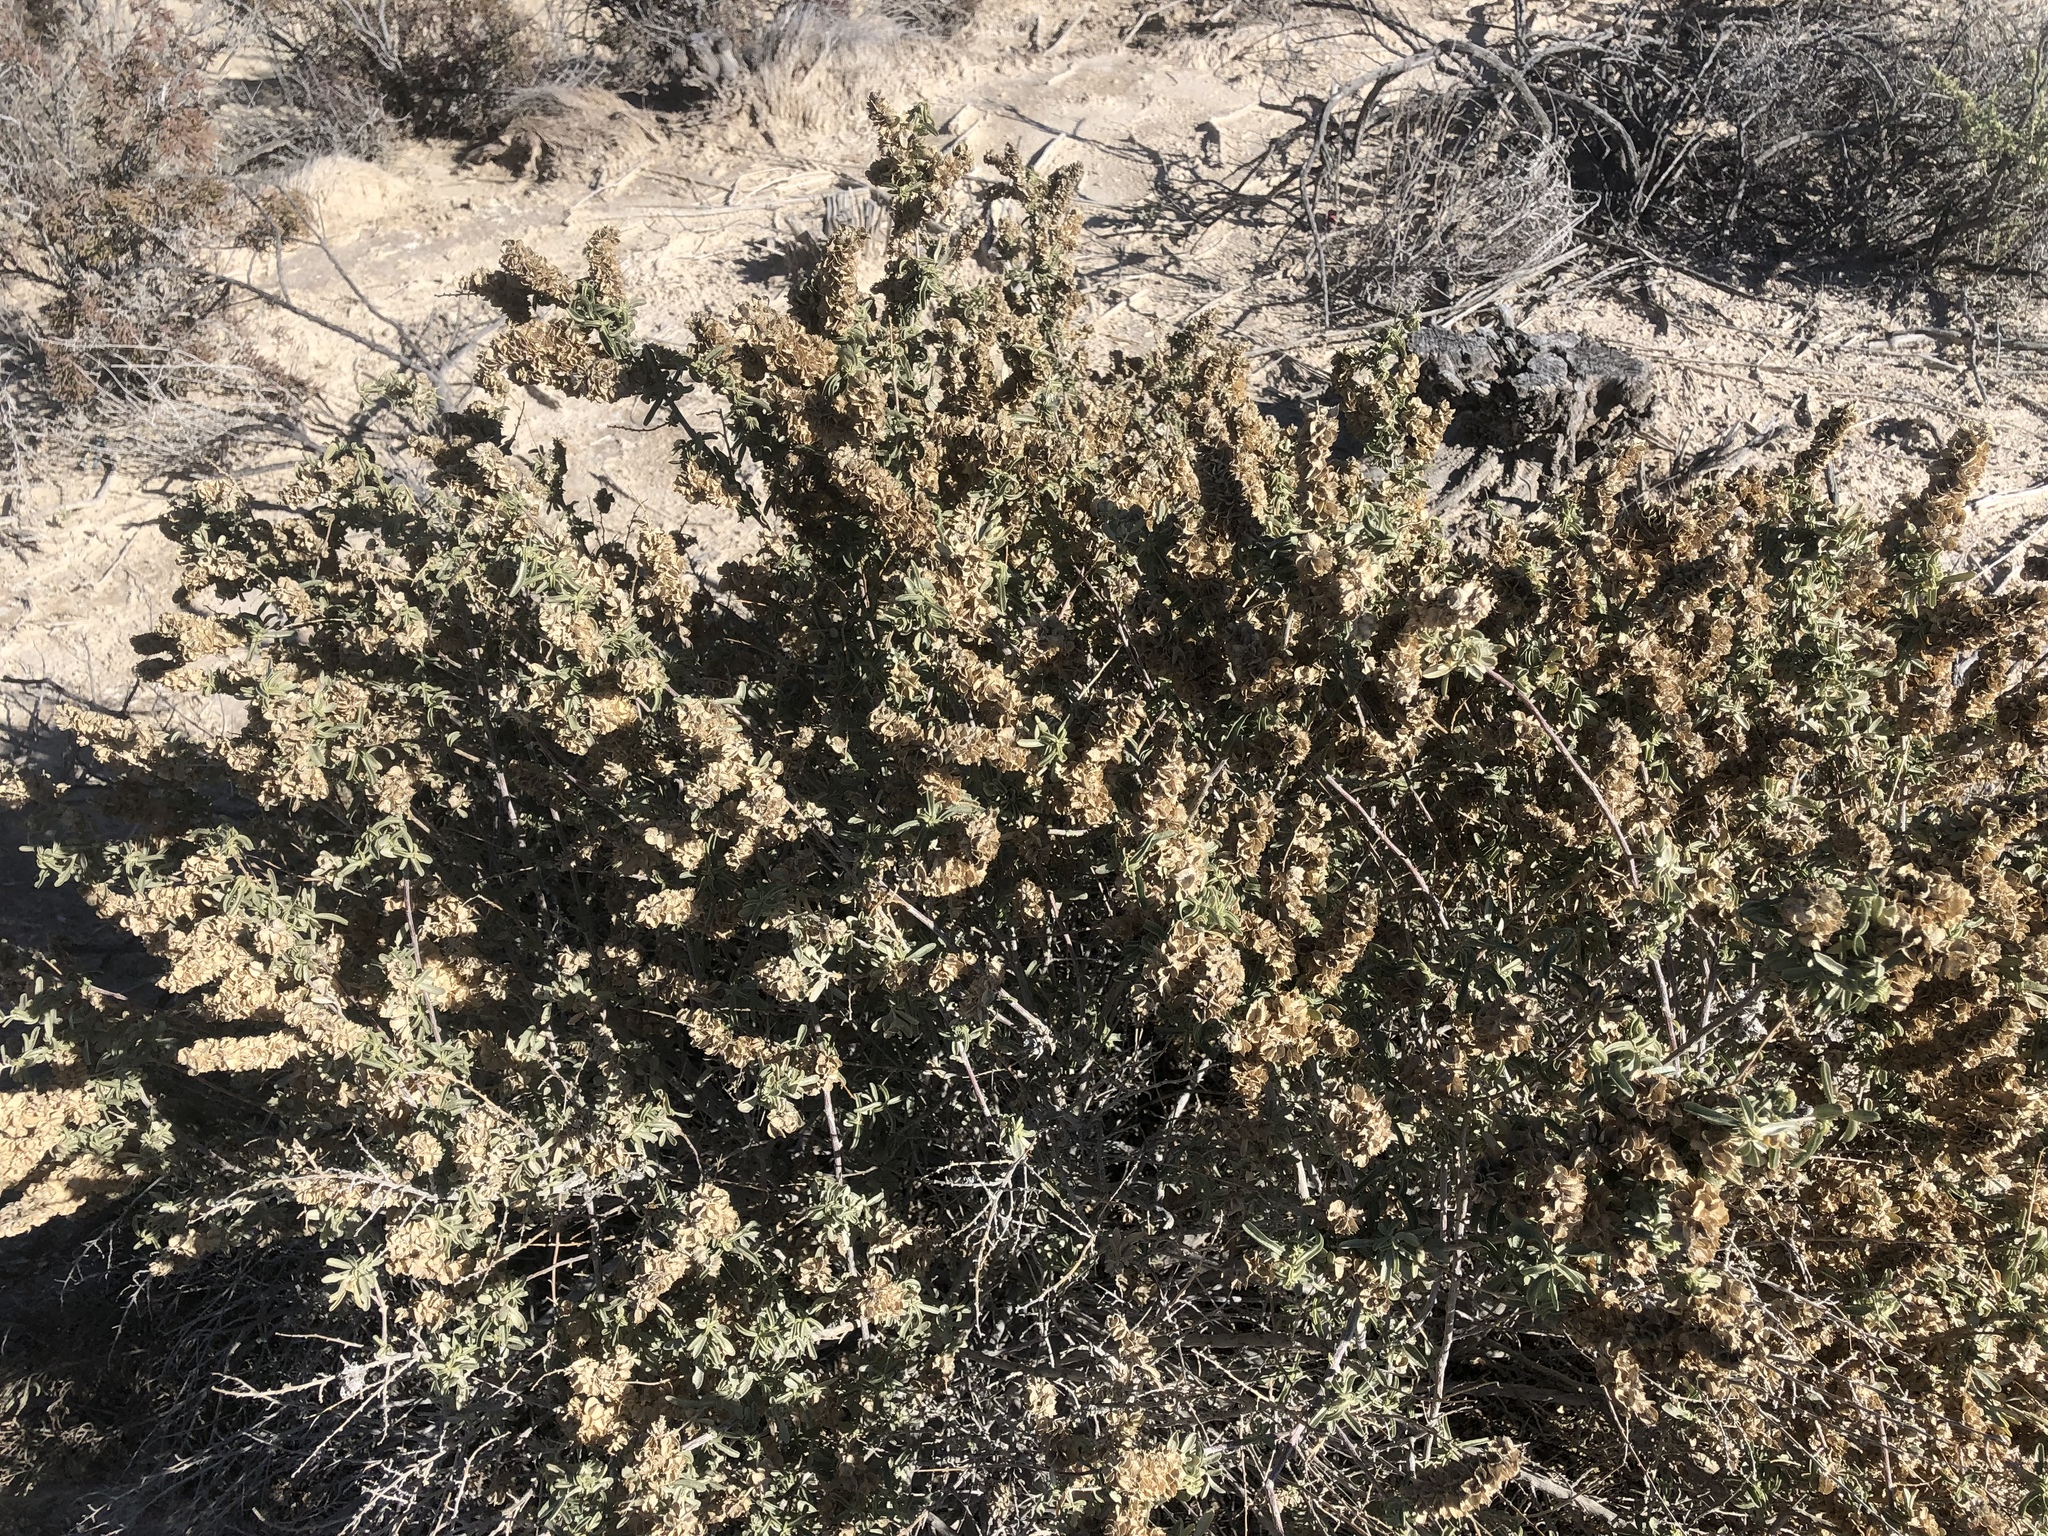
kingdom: Plantae
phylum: Tracheophyta
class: Magnoliopsida
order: Caryophyllales
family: Amaranthaceae
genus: Atriplex
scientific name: Atriplex canescens
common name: Four-wing saltbush
